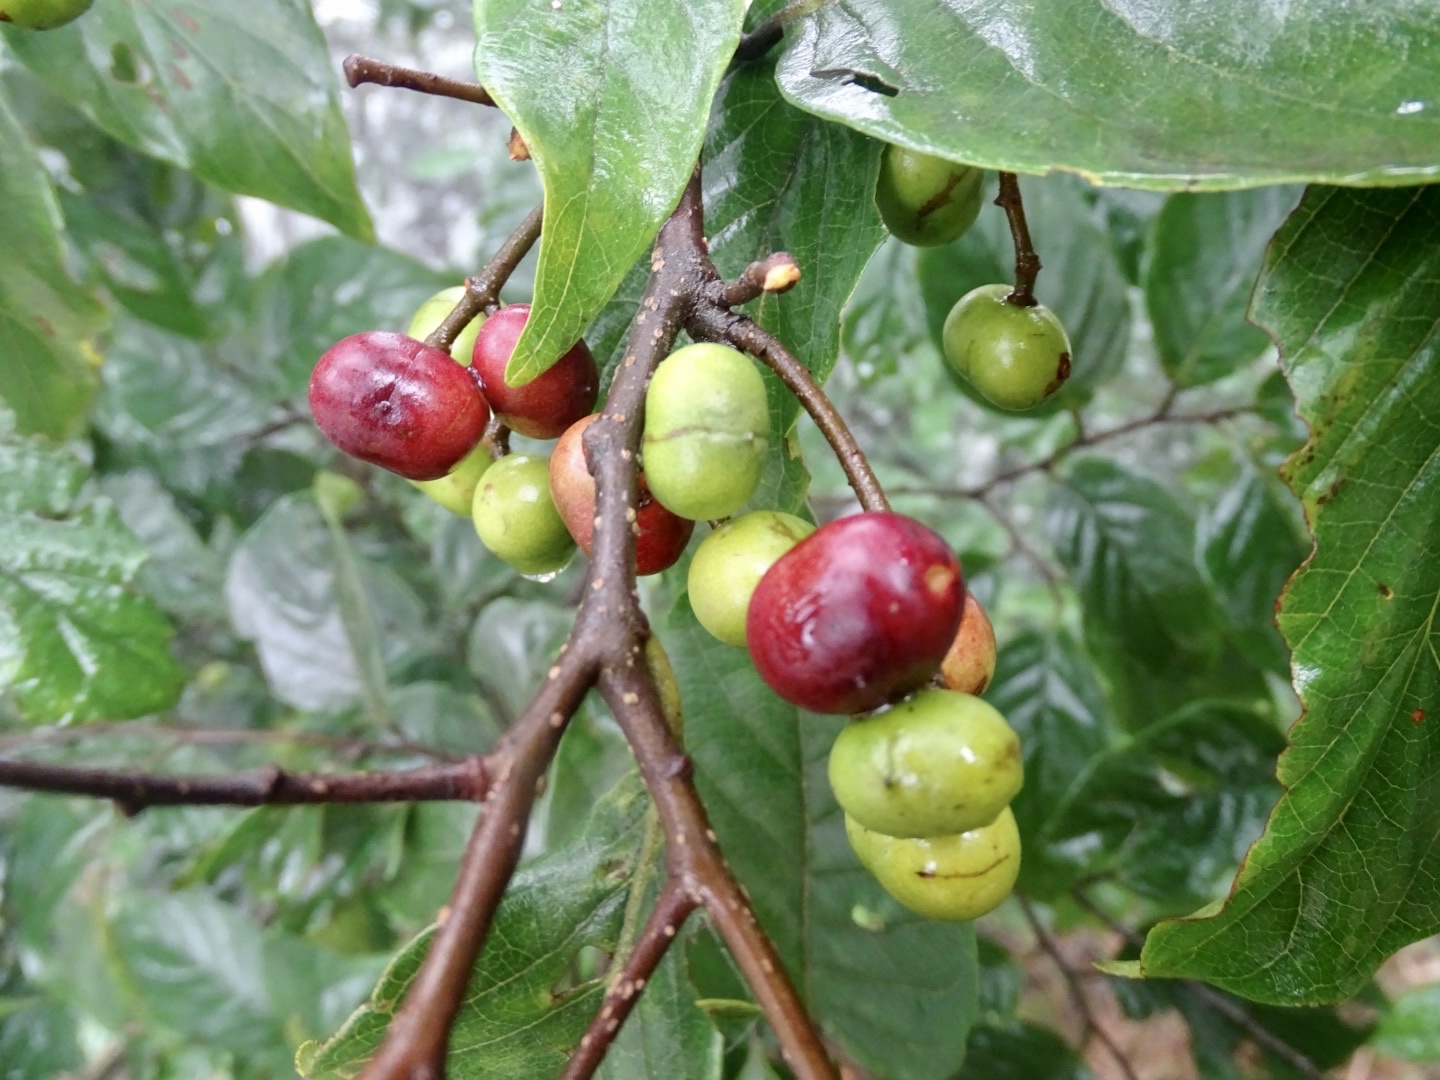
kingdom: Plantae
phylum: Tracheophyta
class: Magnoliopsida
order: Rosales
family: Rosaceae
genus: Prunus
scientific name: Prunus arborea
